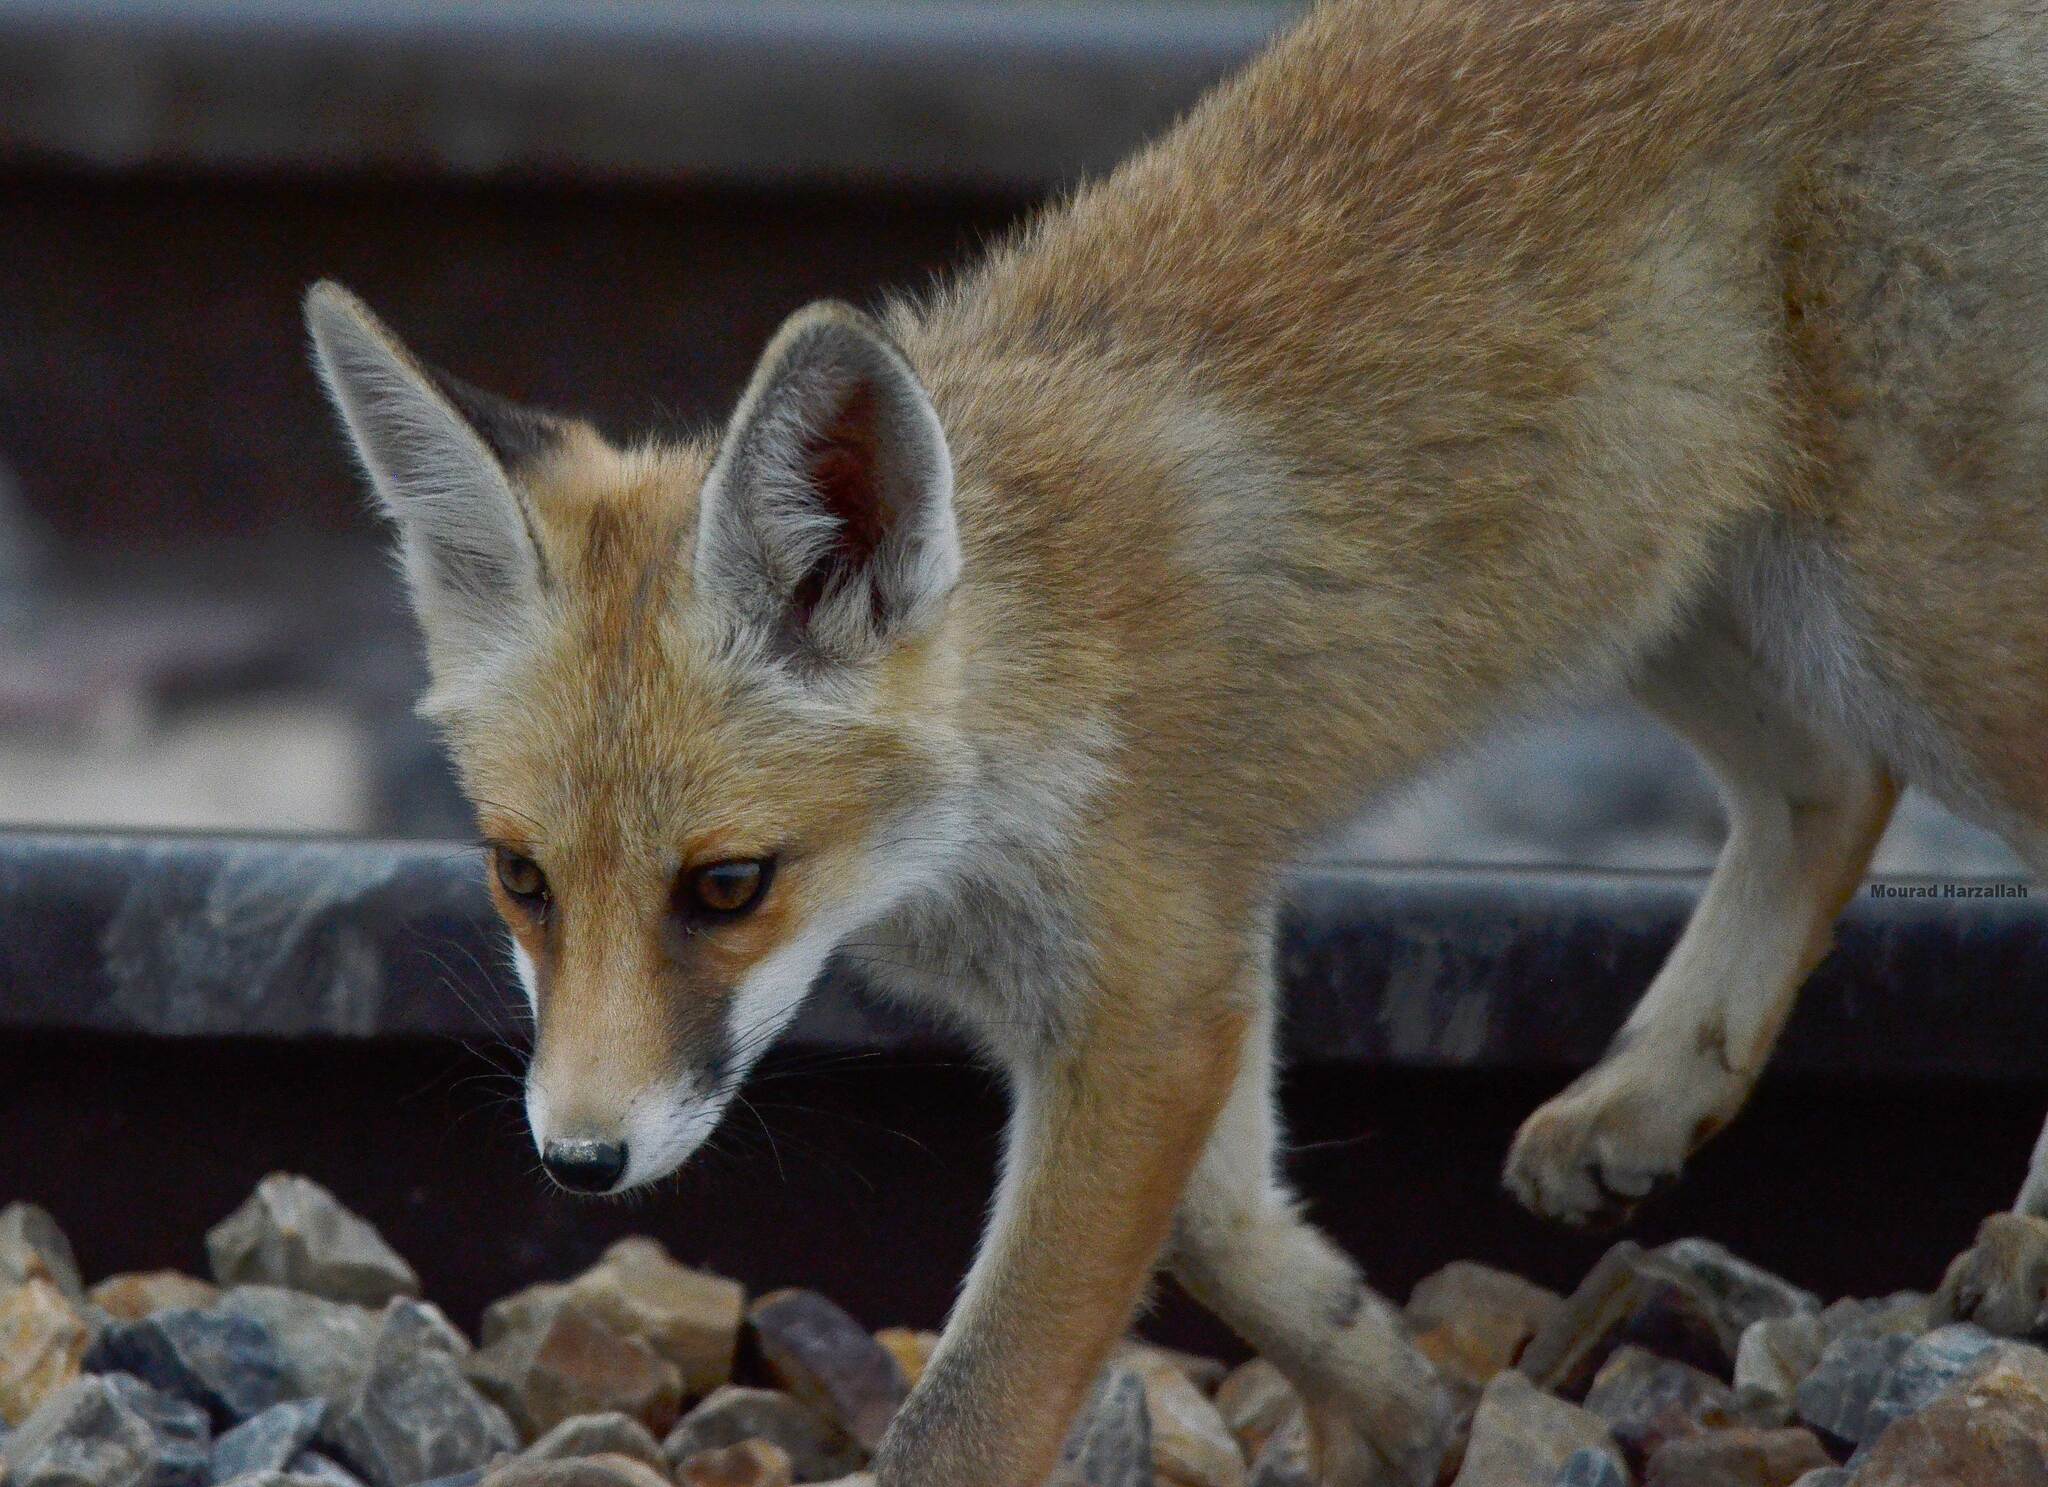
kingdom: Animalia
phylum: Chordata
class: Mammalia
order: Carnivora
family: Canidae
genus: Vulpes
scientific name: Vulpes vulpes
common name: Red fox
